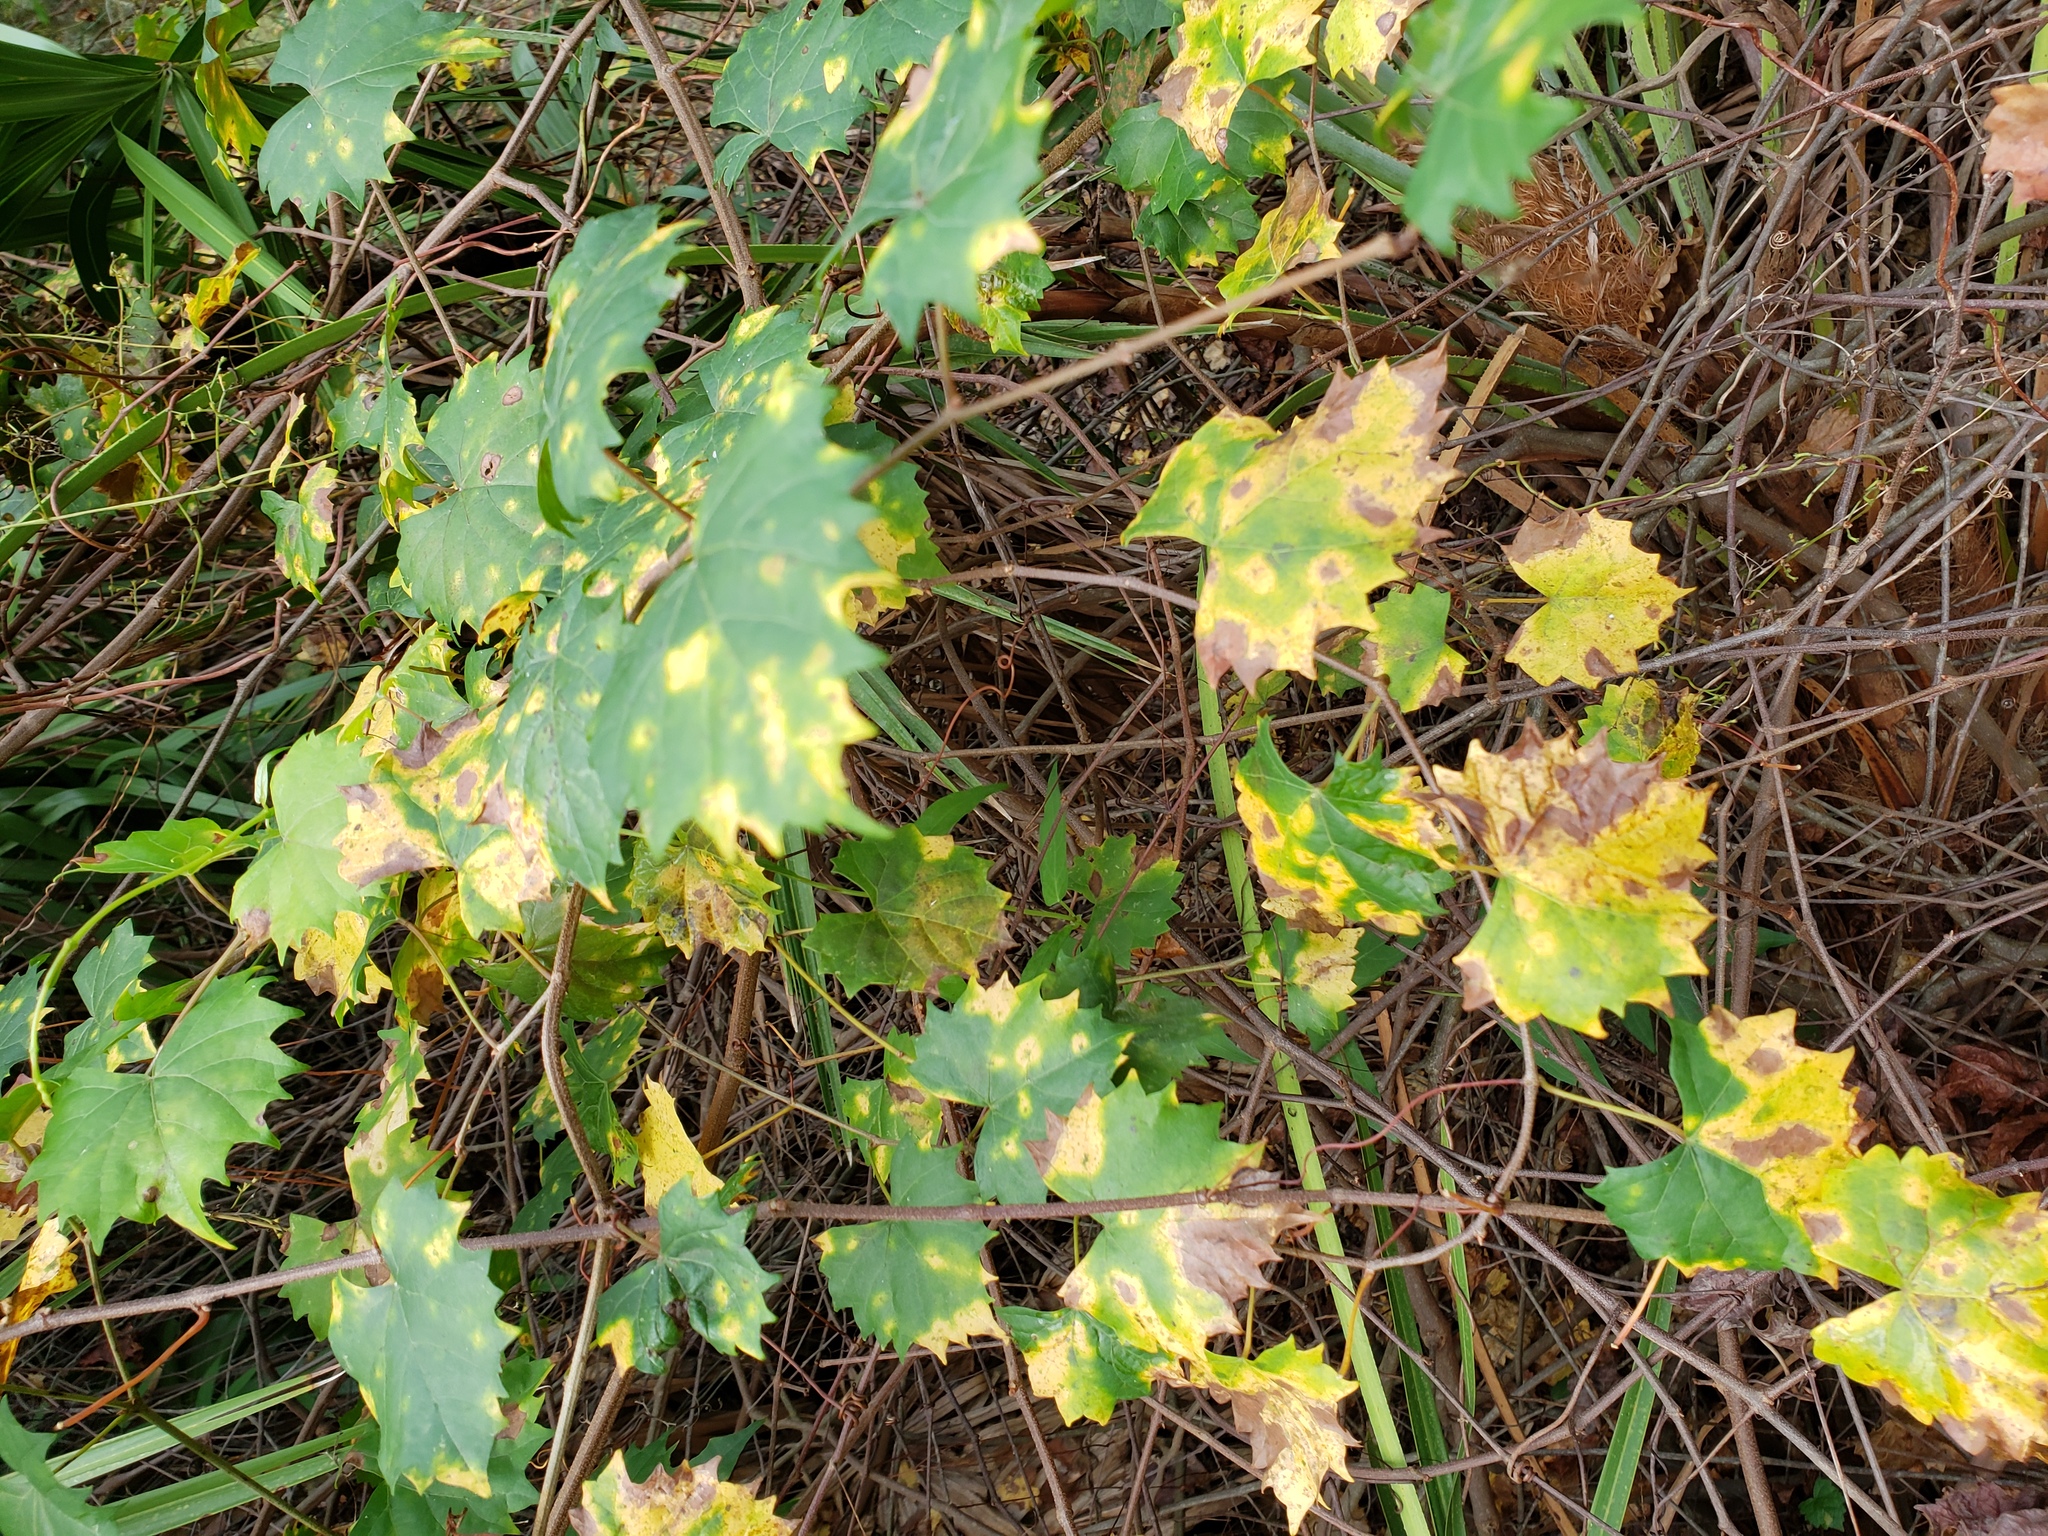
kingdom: Plantae
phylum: Tracheophyta
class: Magnoliopsida
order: Vitales
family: Vitaceae
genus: Vitis
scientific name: Vitis rotundifolia
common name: Muscadine grape
